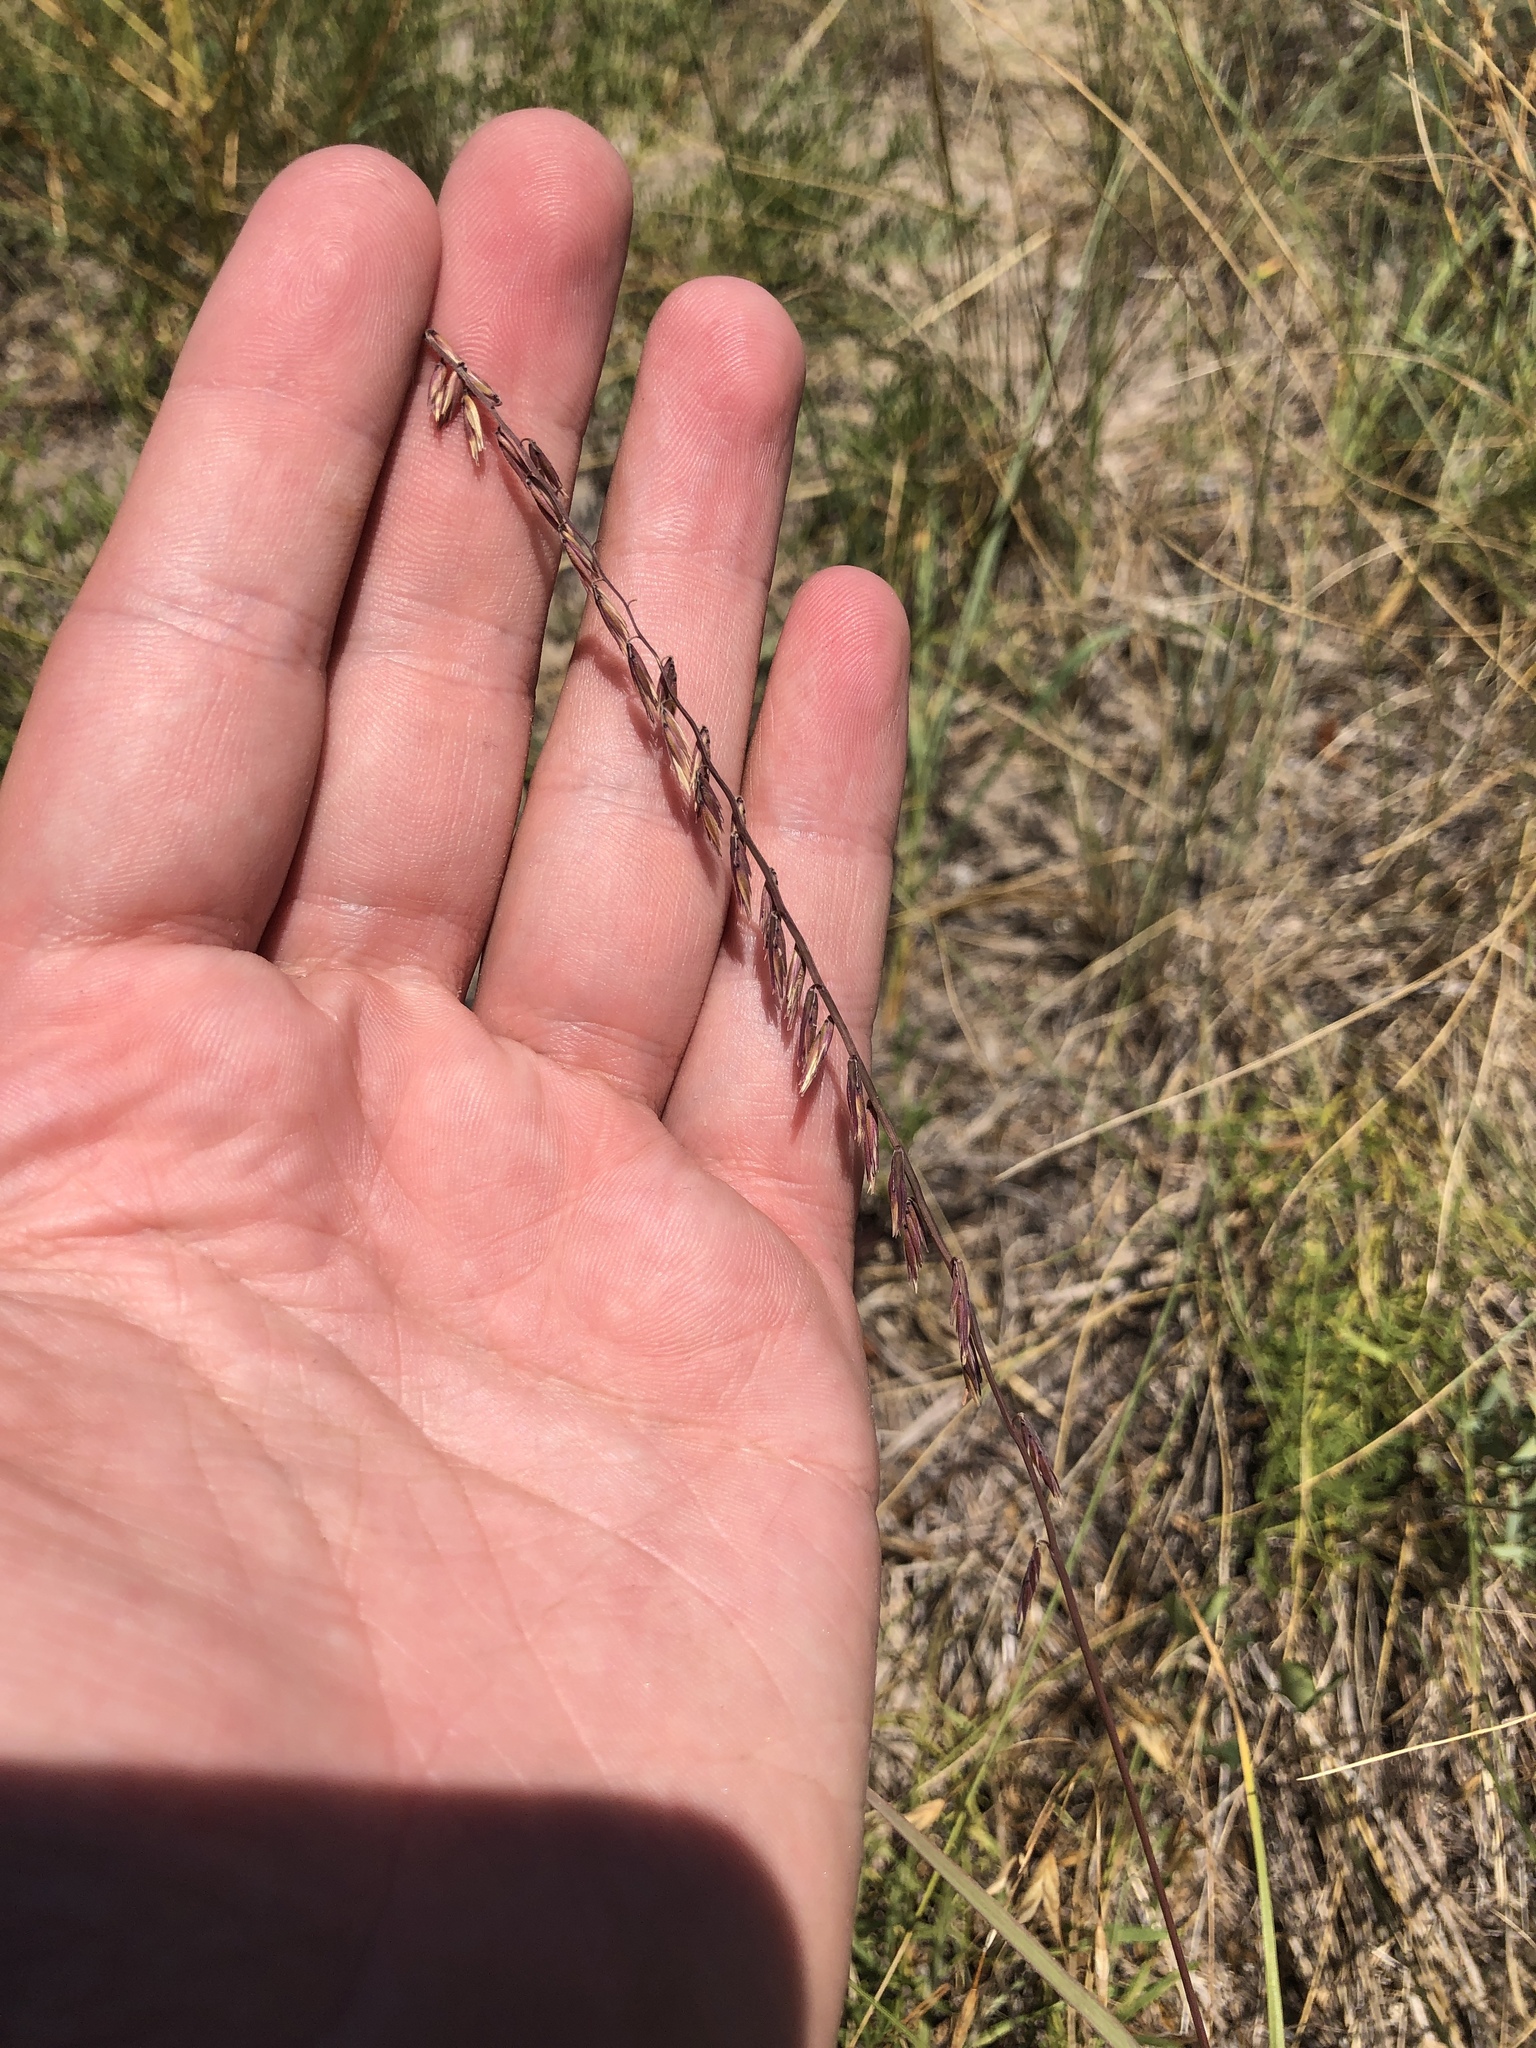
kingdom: Plantae
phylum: Tracheophyta
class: Liliopsida
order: Poales
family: Poaceae
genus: Bouteloua
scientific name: Bouteloua curtipendula
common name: Side-oats grama
